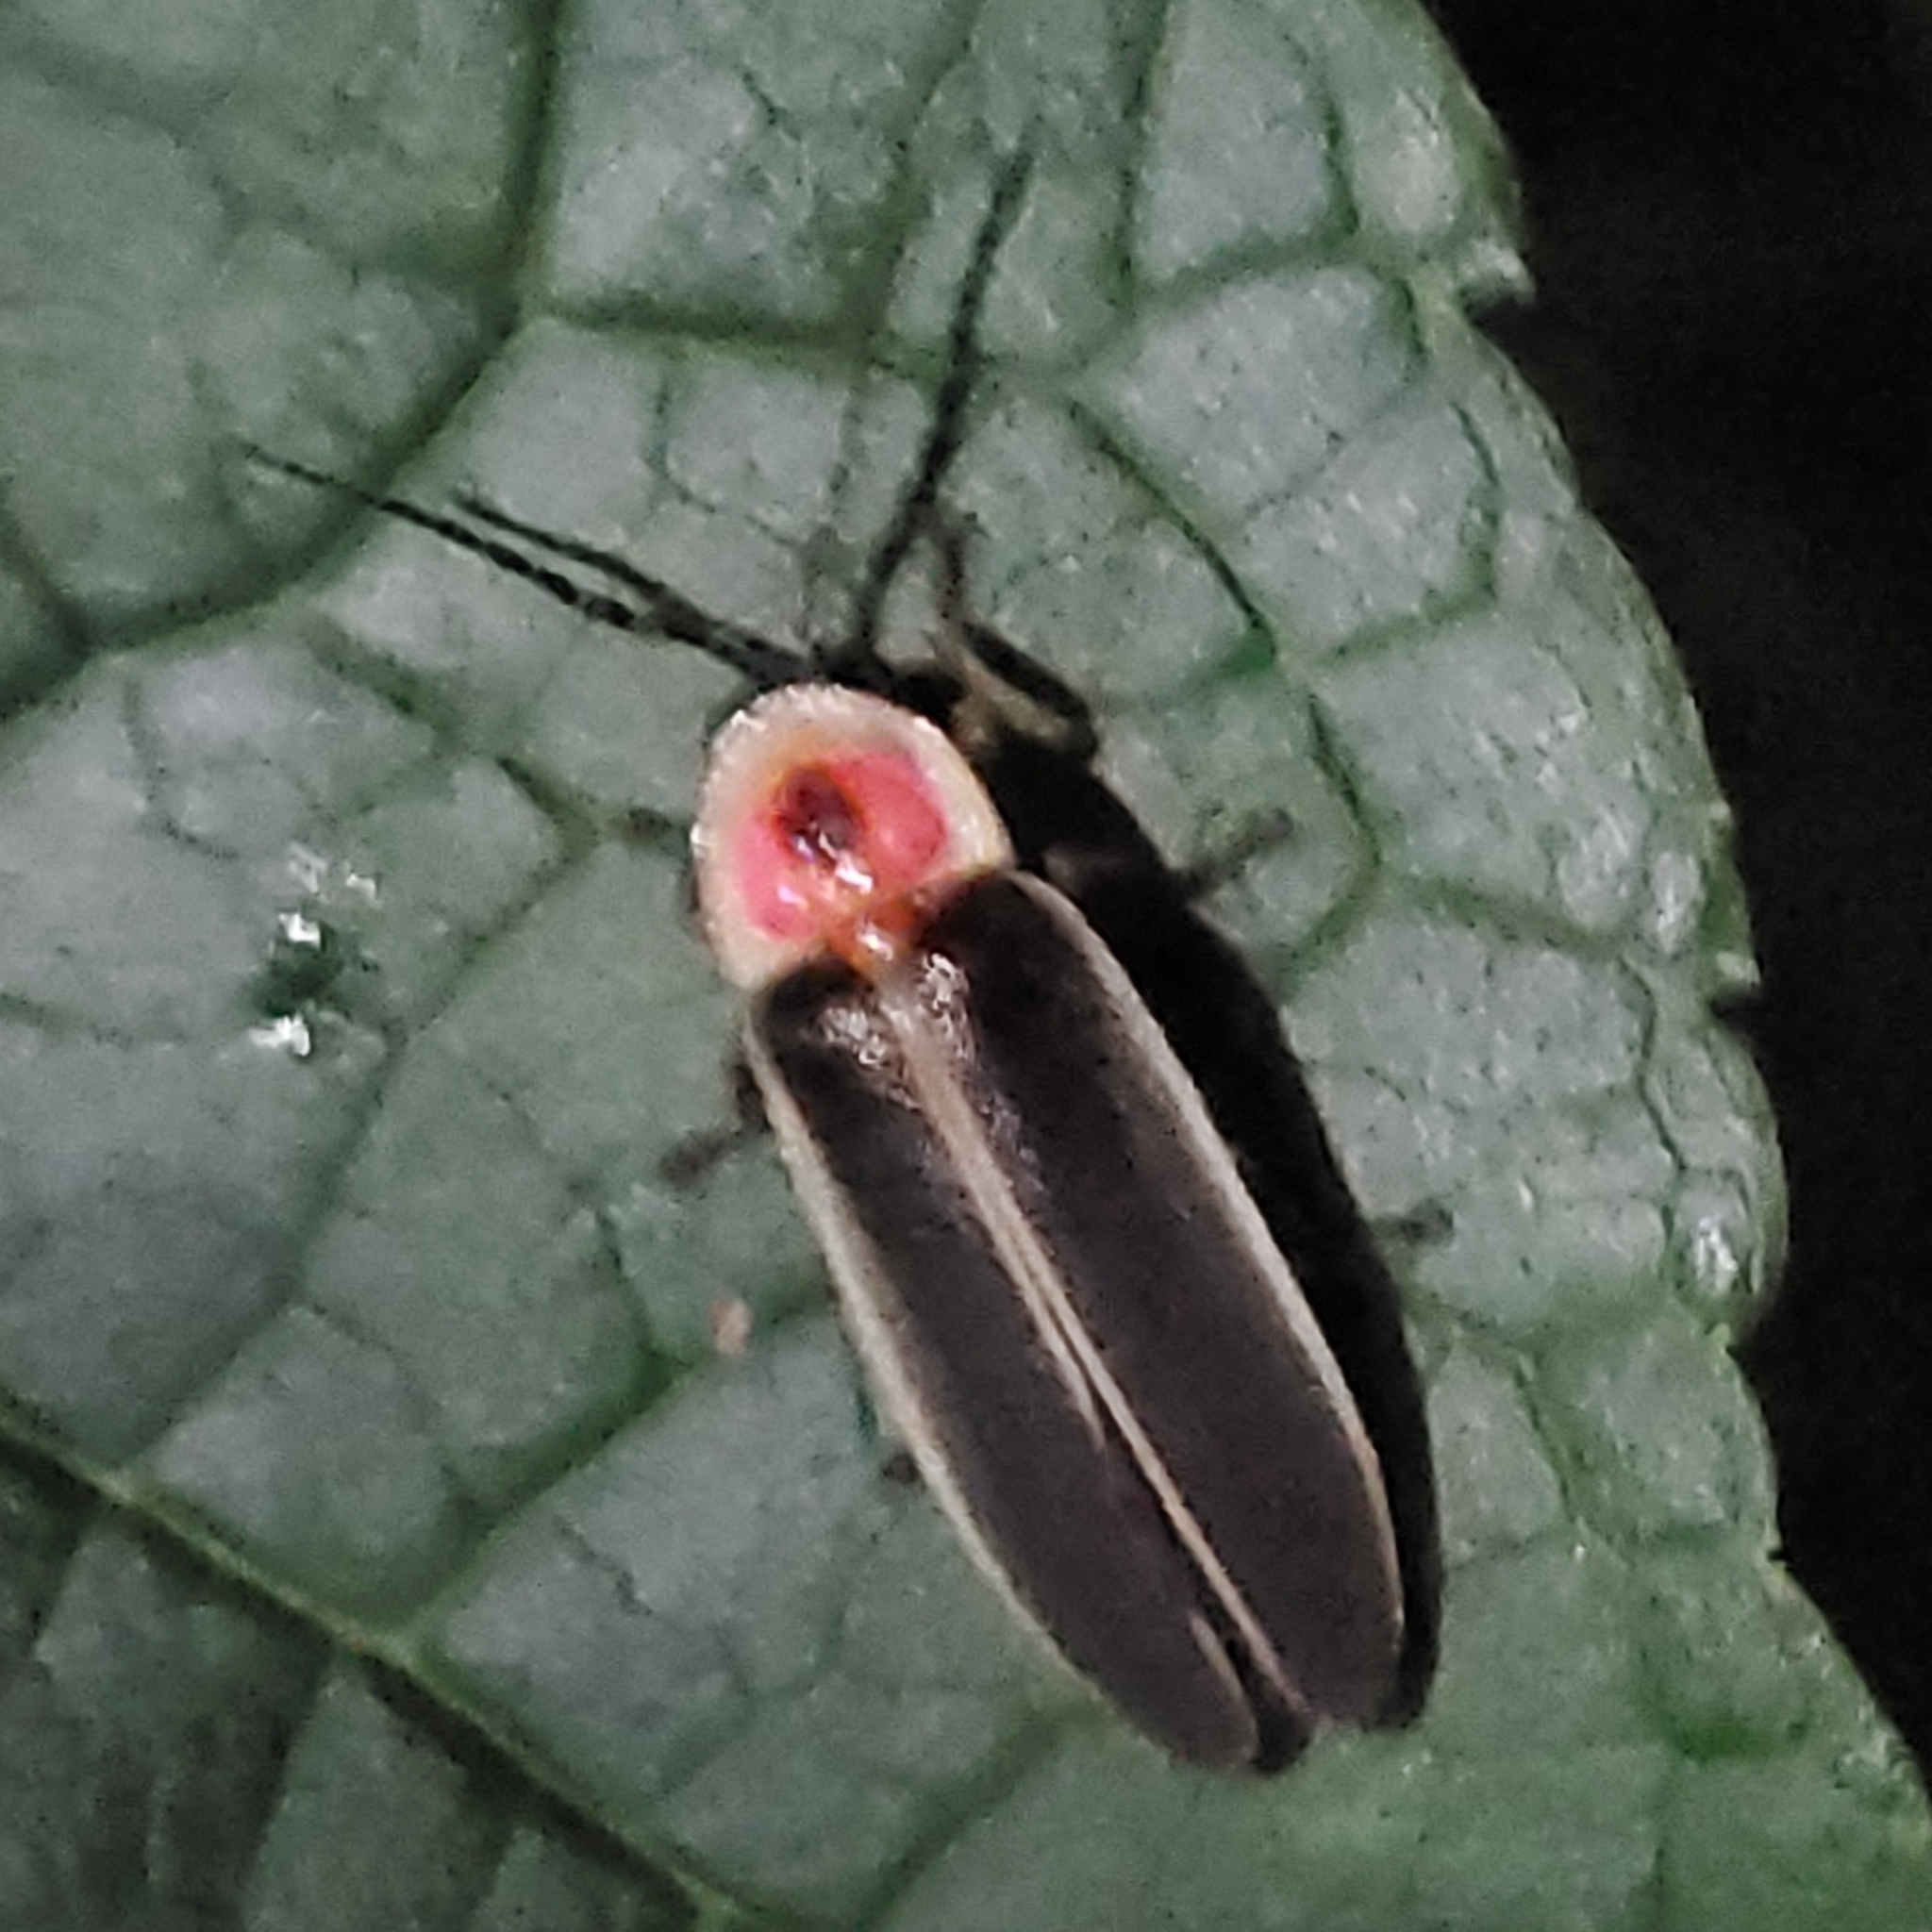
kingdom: Animalia
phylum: Arthropoda
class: Insecta
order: Coleoptera
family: Lampyridae
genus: Photinus
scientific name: Photinus pyralis
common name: Big dipper firefly
